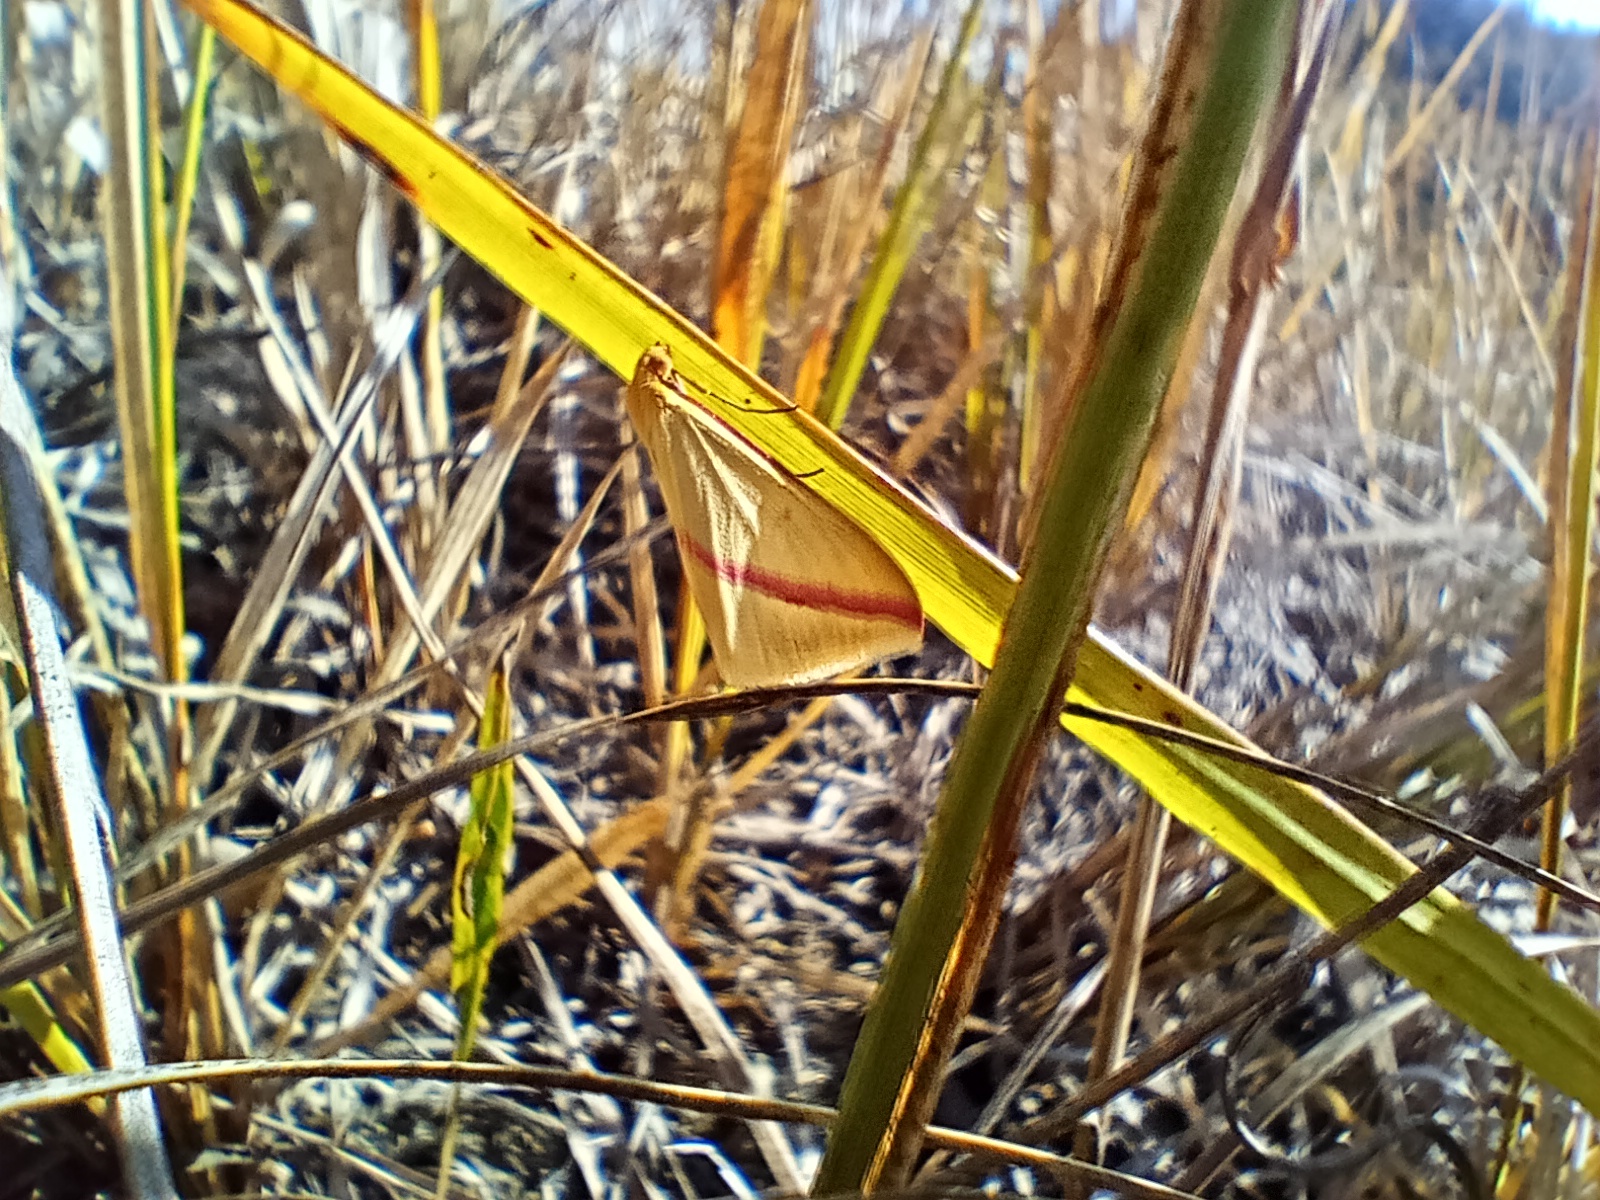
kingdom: Animalia
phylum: Arthropoda
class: Insecta
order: Lepidoptera
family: Geometridae
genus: Rhodometra
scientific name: Rhodometra sacraria
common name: Vestal
